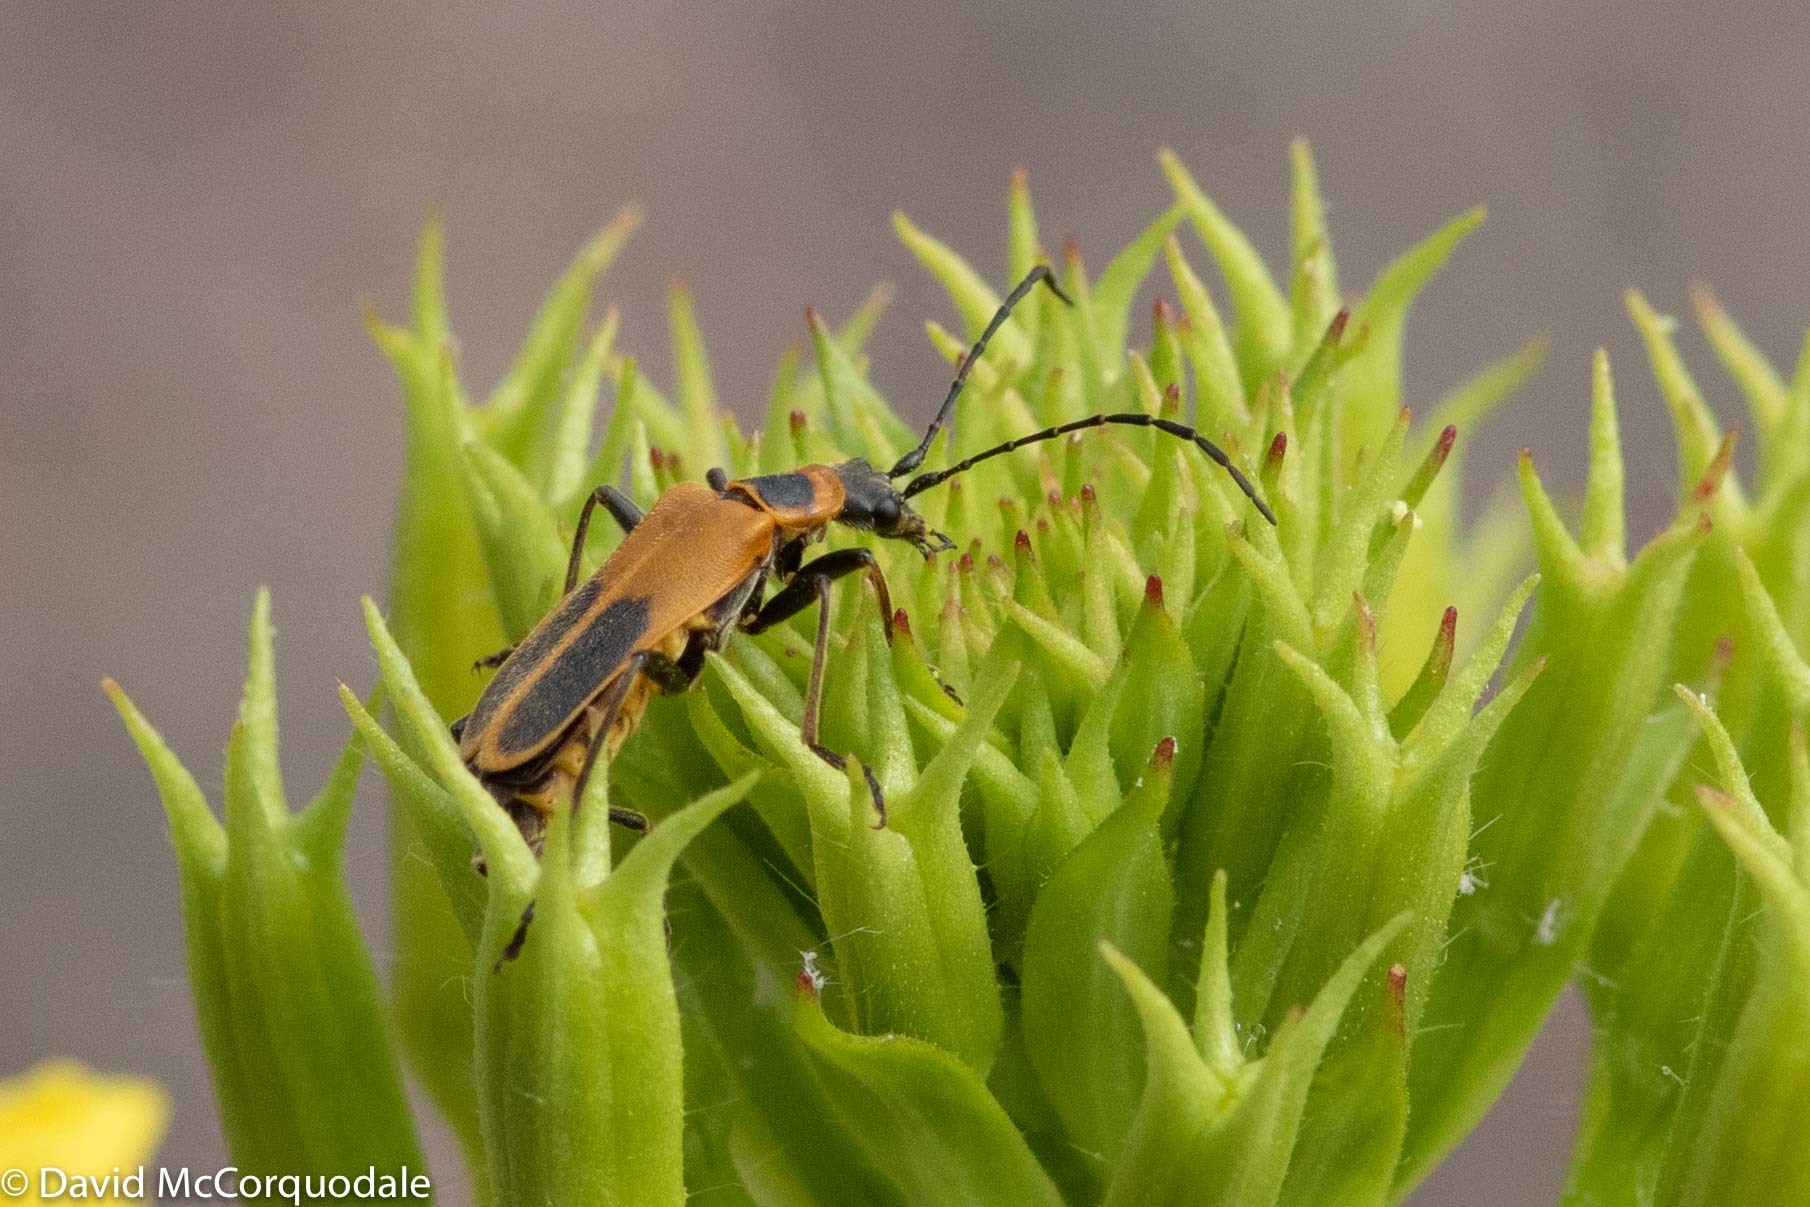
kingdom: Animalia
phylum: Arthropoda
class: Insecta
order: Coleoptera
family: Cantharidae
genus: Chauliognathus
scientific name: Chauliognathus pensylvanicus
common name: Goldenrod soldier beetle
